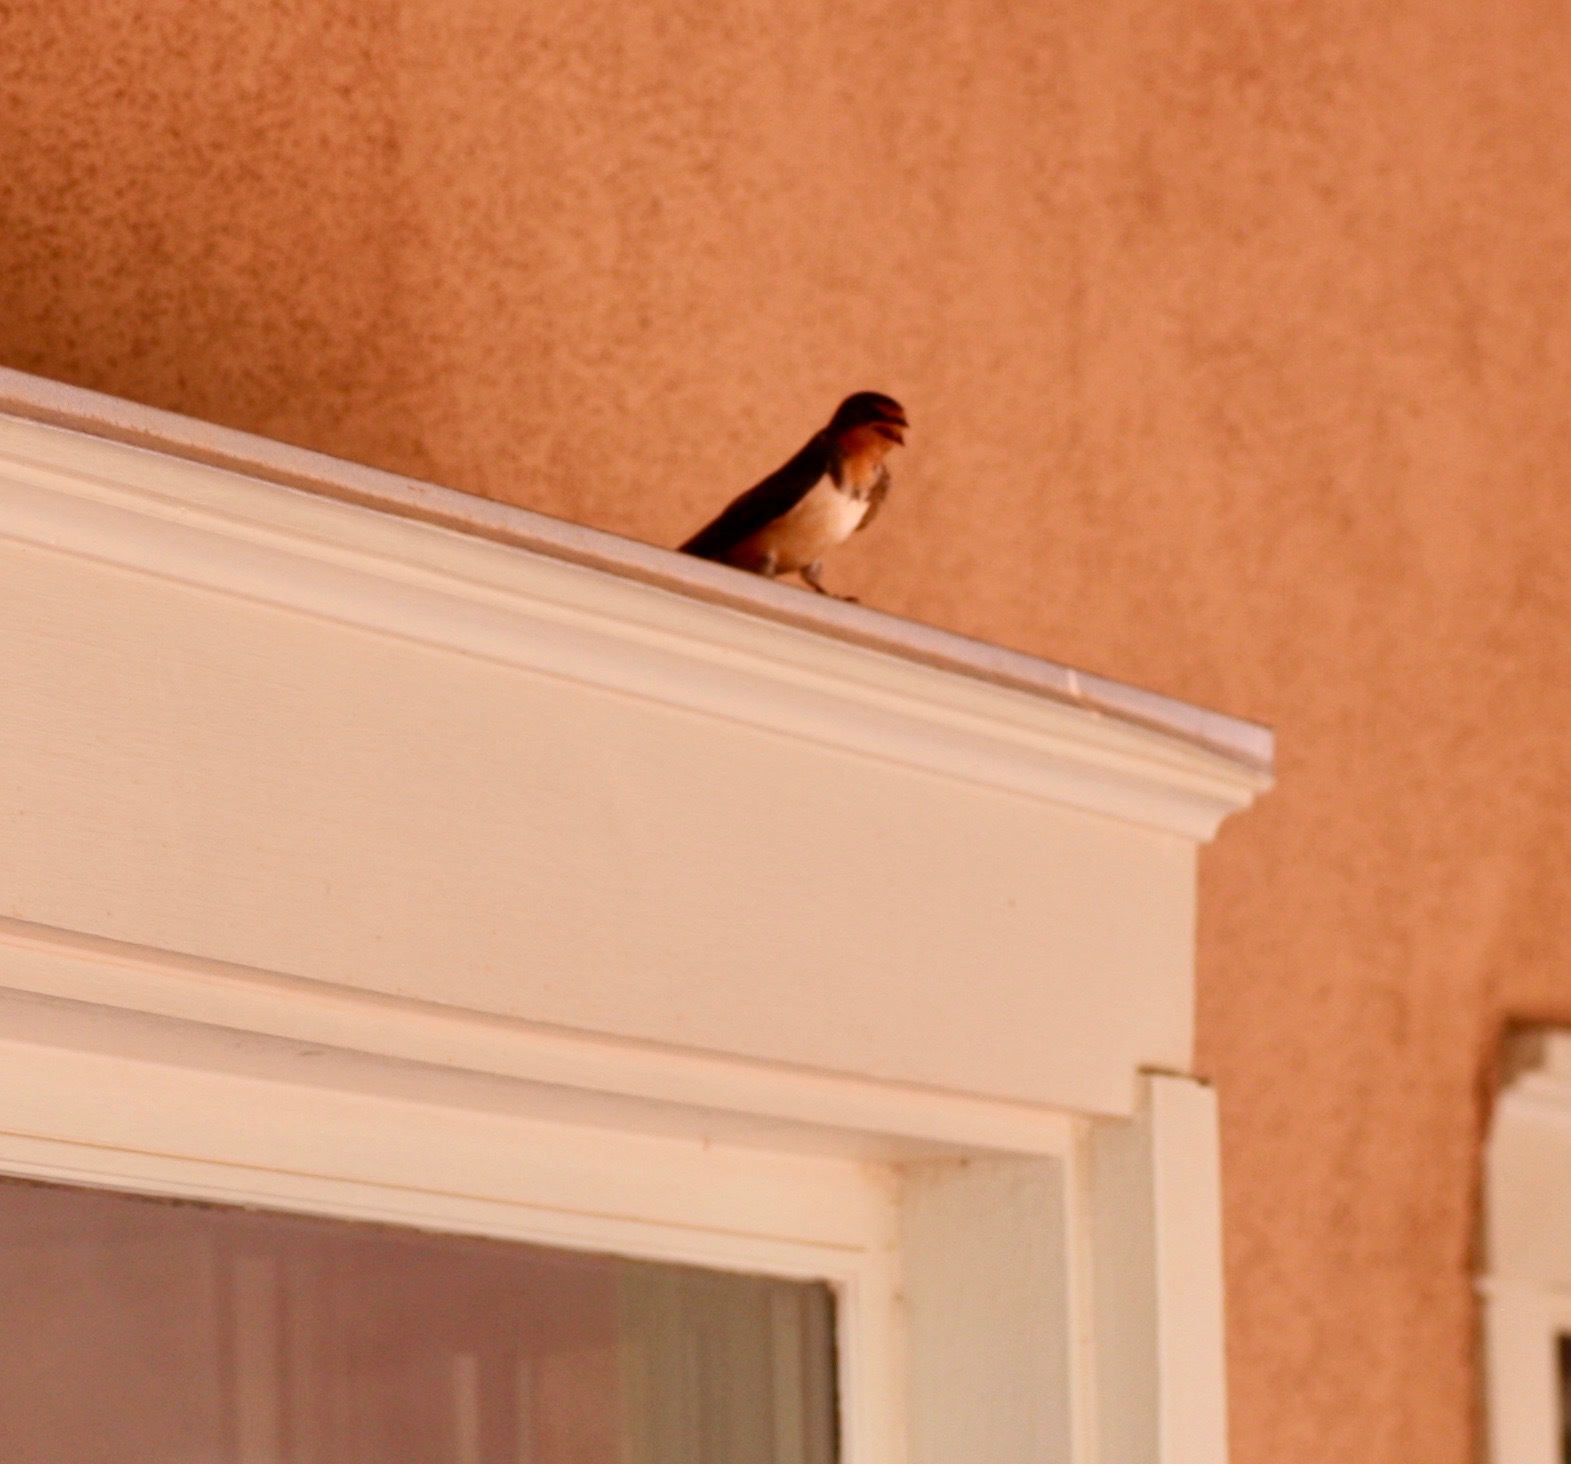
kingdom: Animalia
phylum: Chordata
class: Aves
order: Passeriformes
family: Hirundinidae
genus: Hirundo
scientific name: Hirundo rustica
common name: Barn swallow
